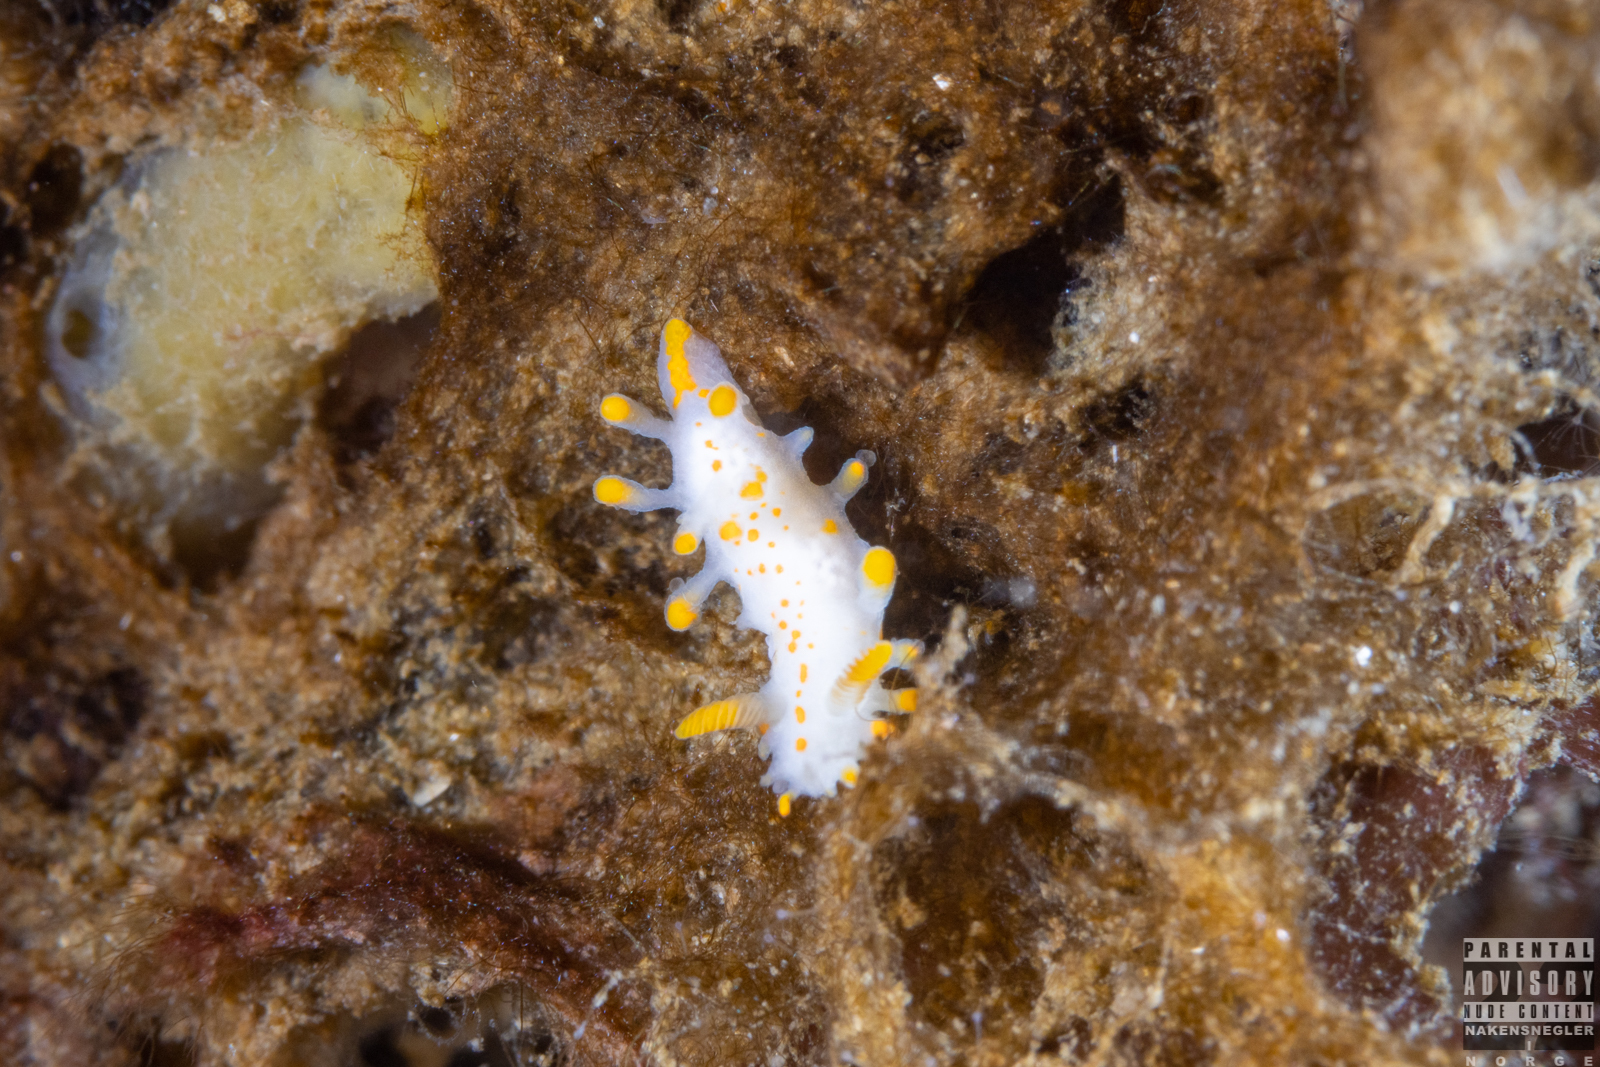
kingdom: Animalia
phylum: Mollusca
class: Gastropoda
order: Nudibranchia
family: Polyceridae
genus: Limacia
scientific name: Limacia clavigera
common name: Orange-clubbed sea slug
